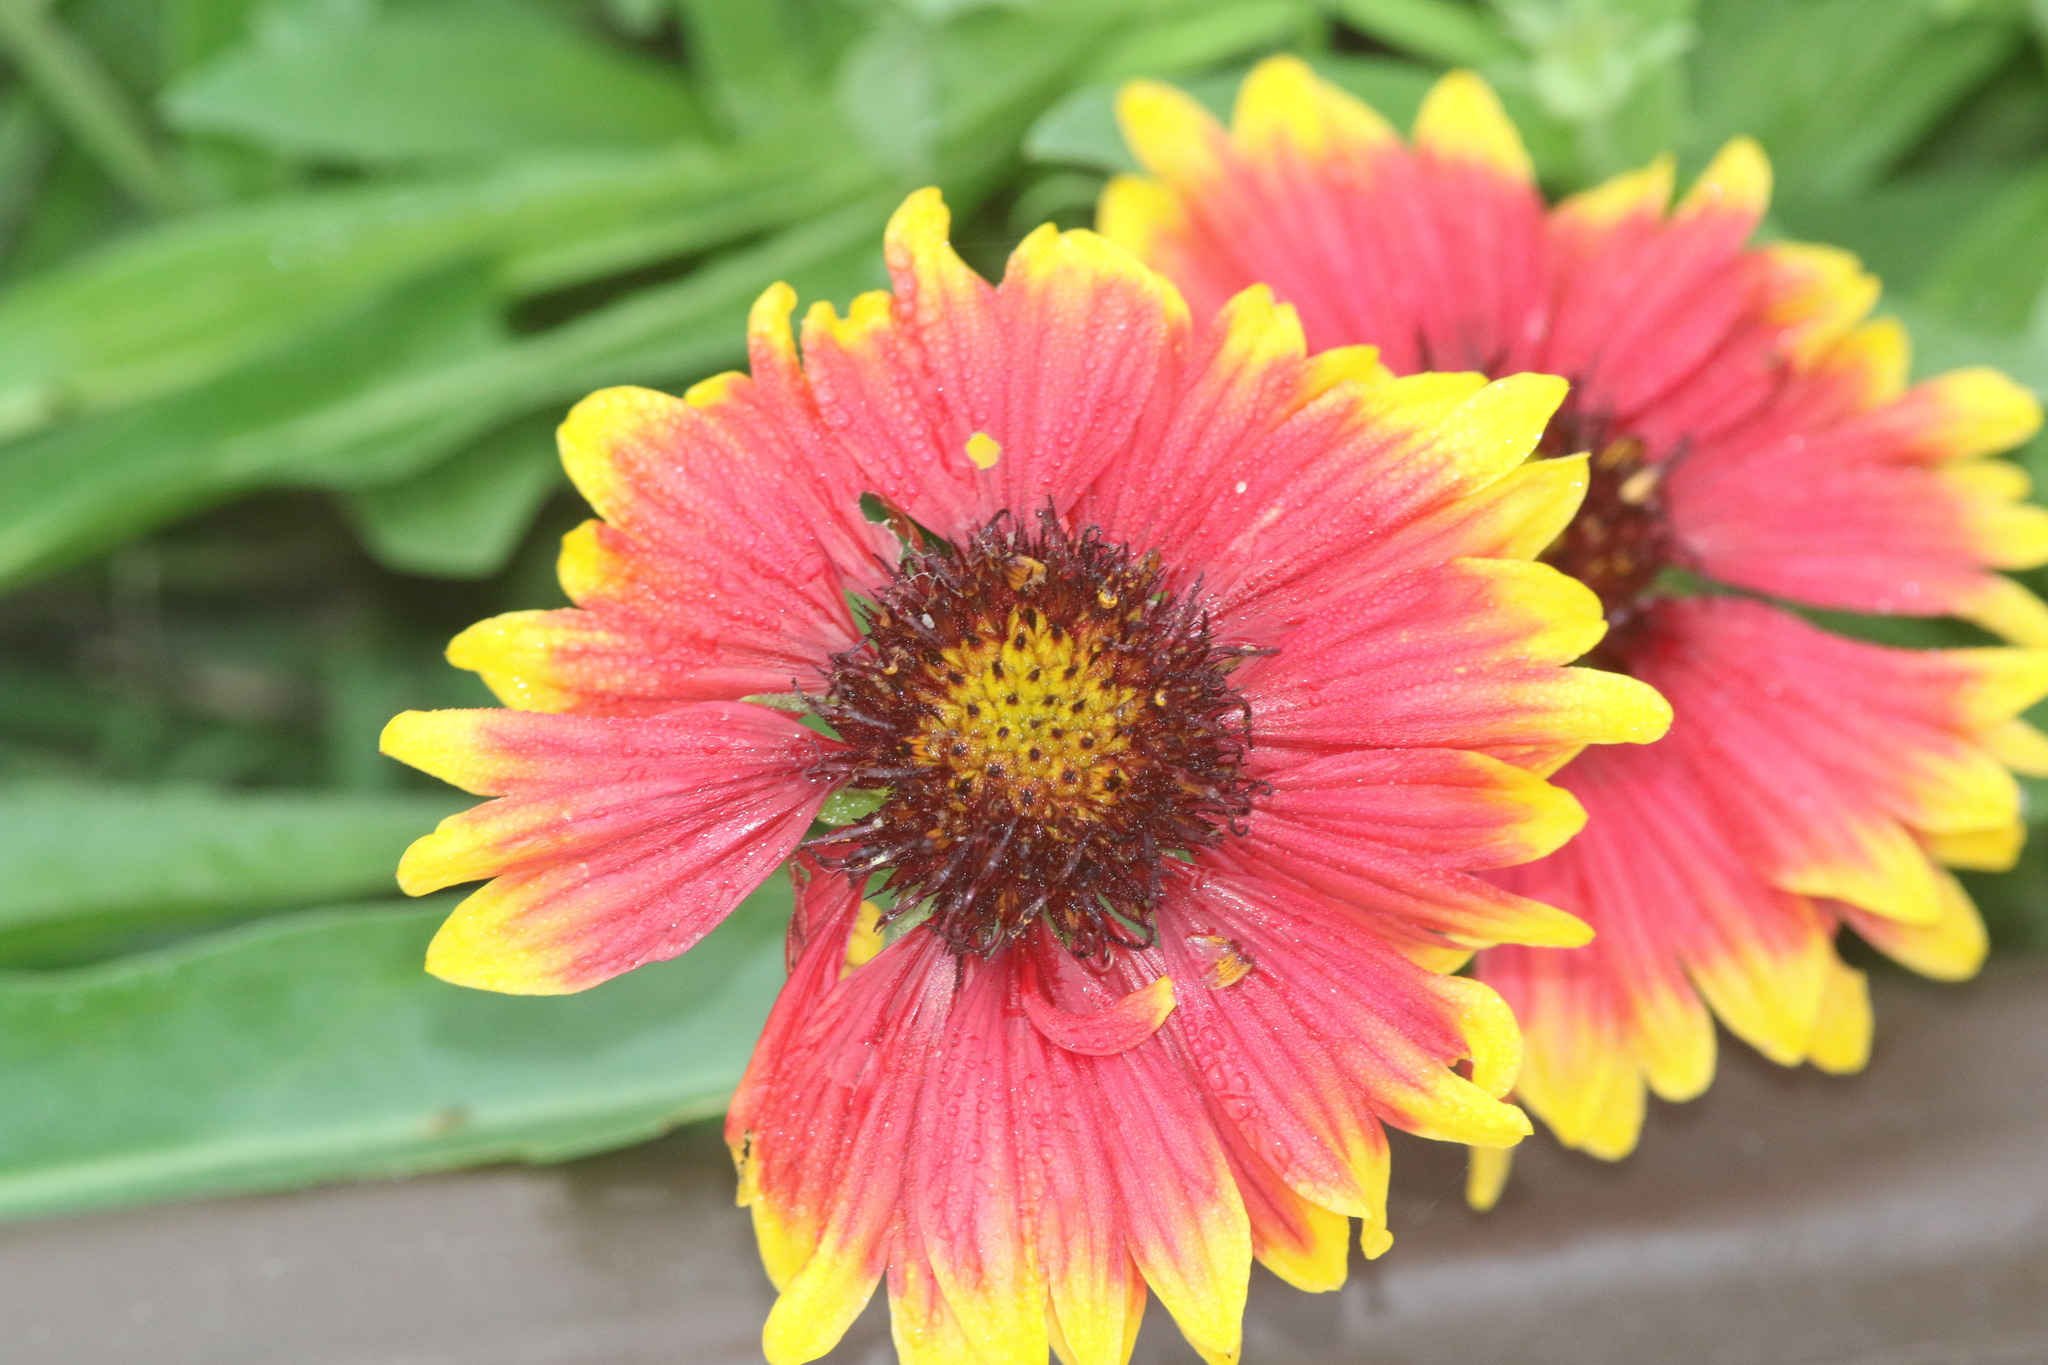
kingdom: Plantae
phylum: Tracheophyta
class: Magnoliopsida
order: Asterales
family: Asteraceae
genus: Gaillardia
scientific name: Gaillardia pulchella
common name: Firewheel
